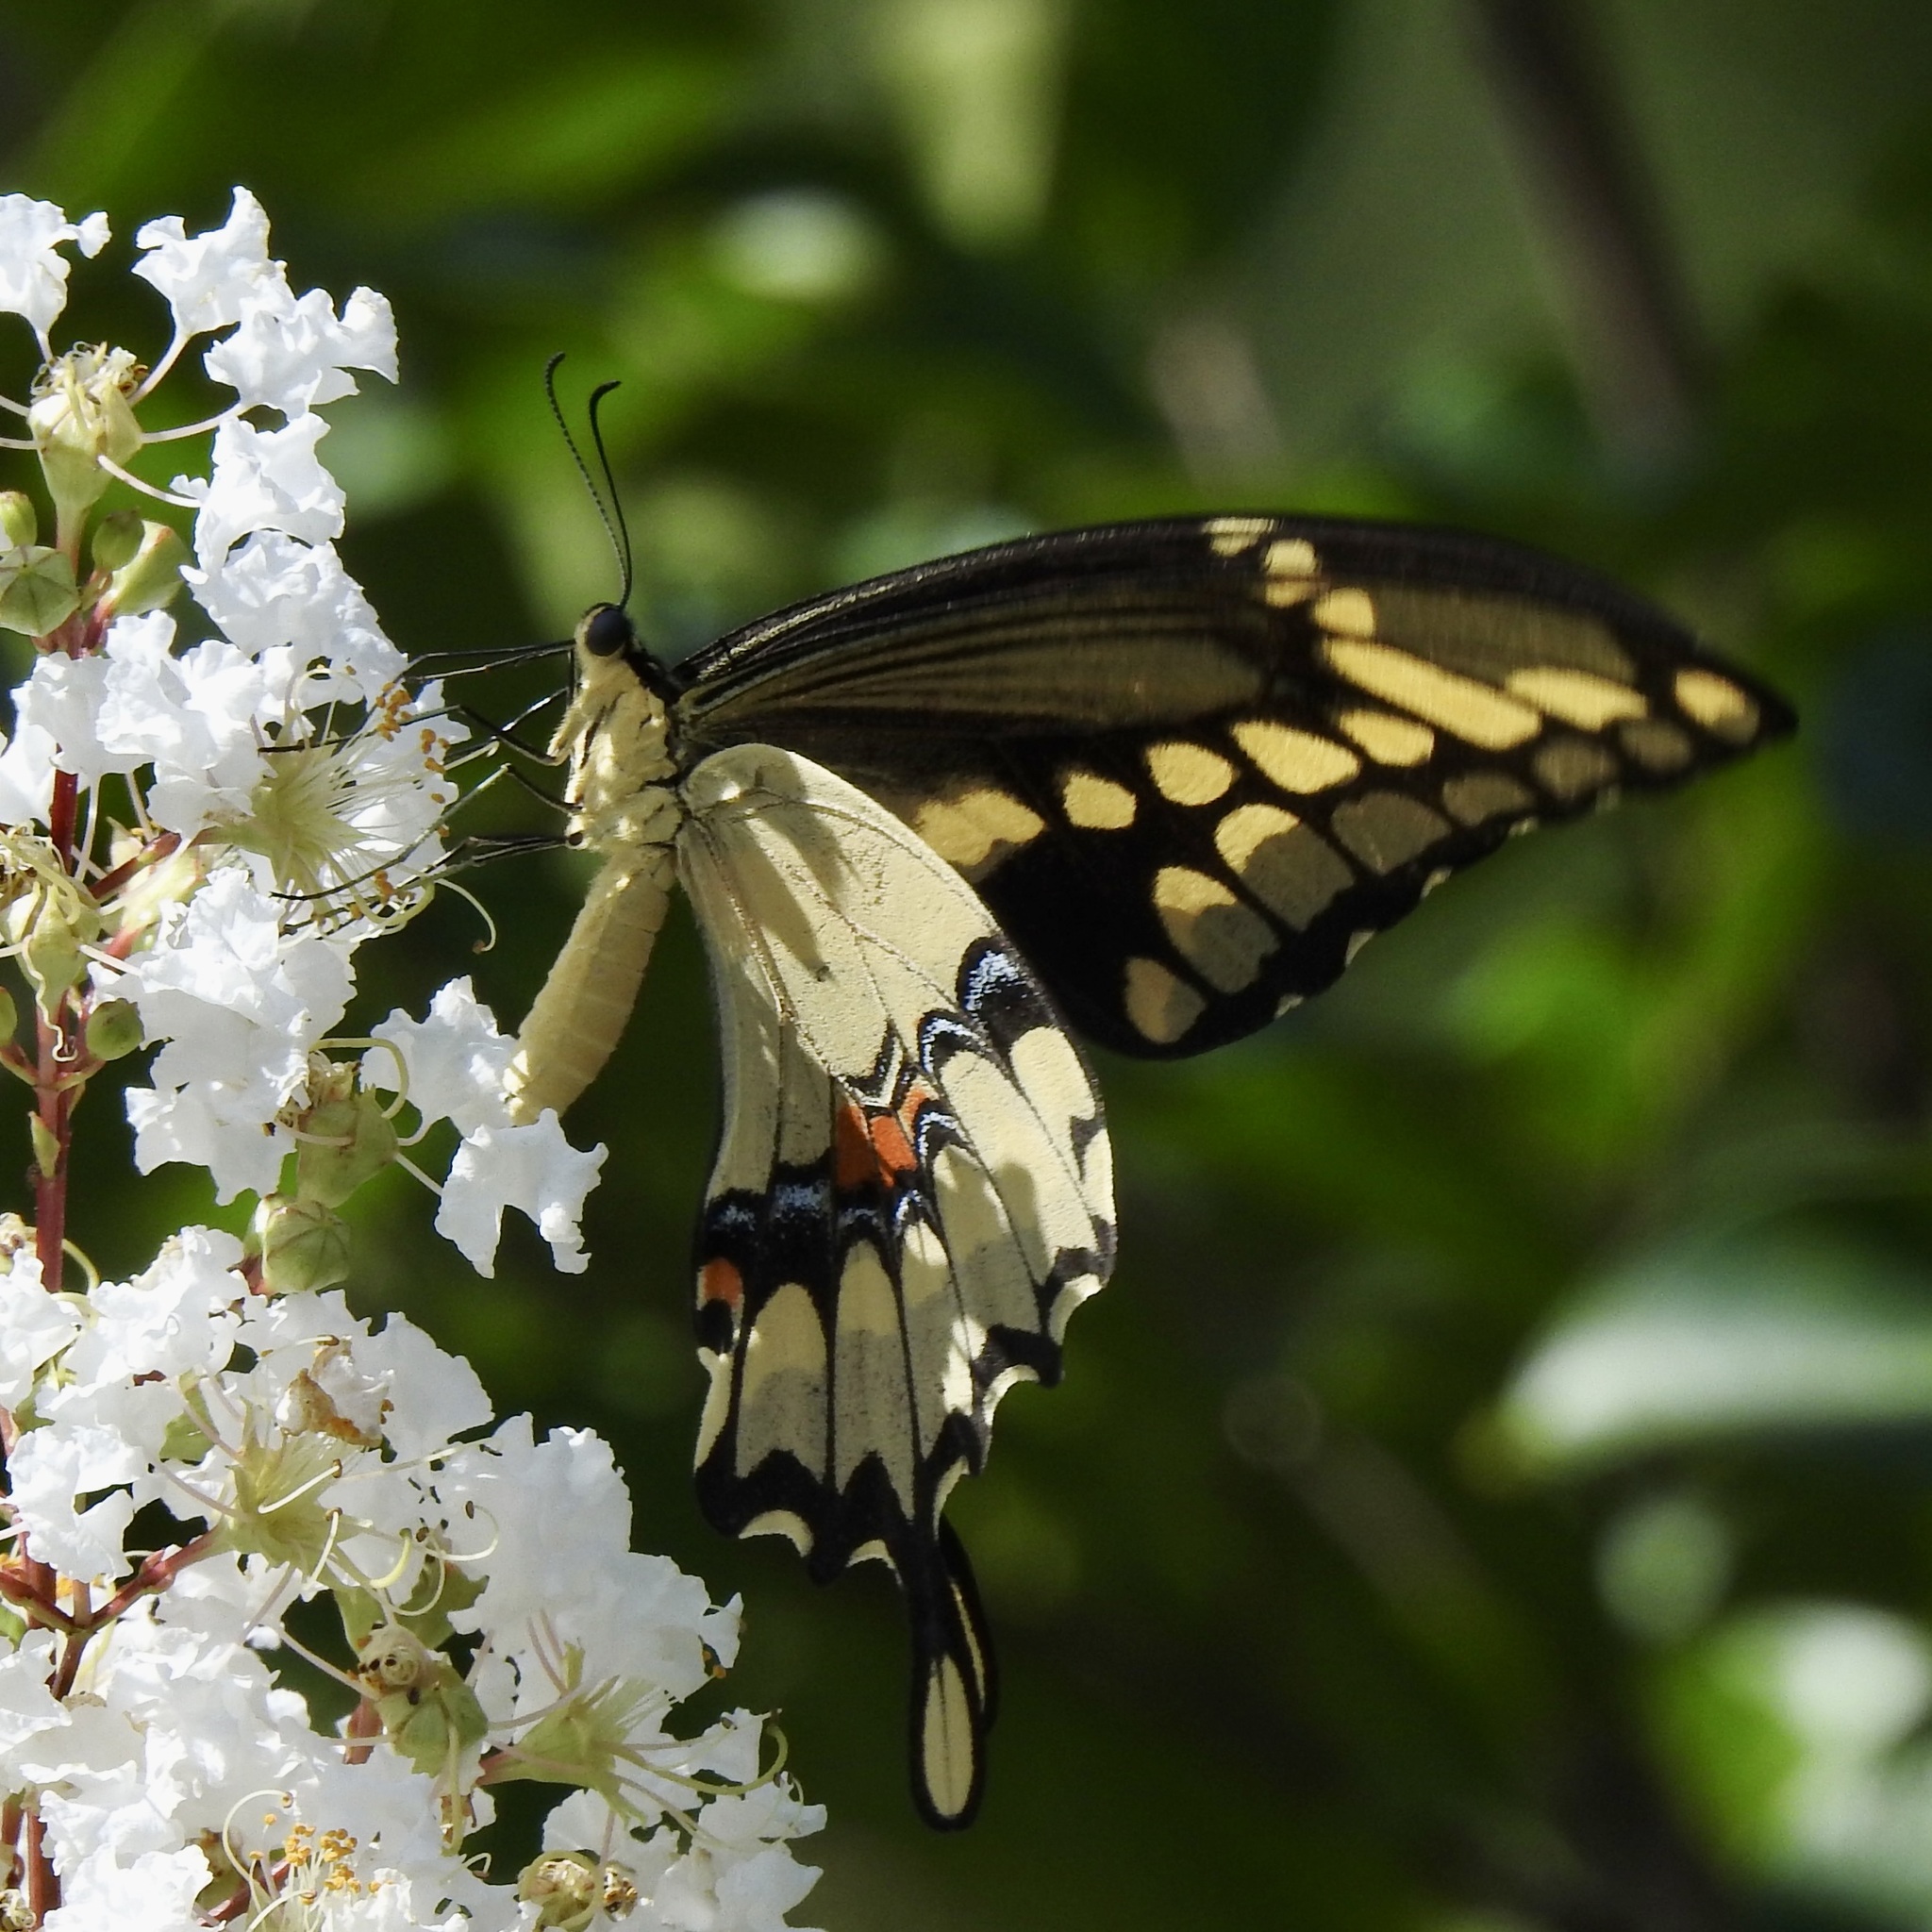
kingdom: Animalia
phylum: Arthropoda
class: Insecta
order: Lepidoptera
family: Papilionidae
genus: Papilio
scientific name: Papilio cresphontes
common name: Giant swallowtail
